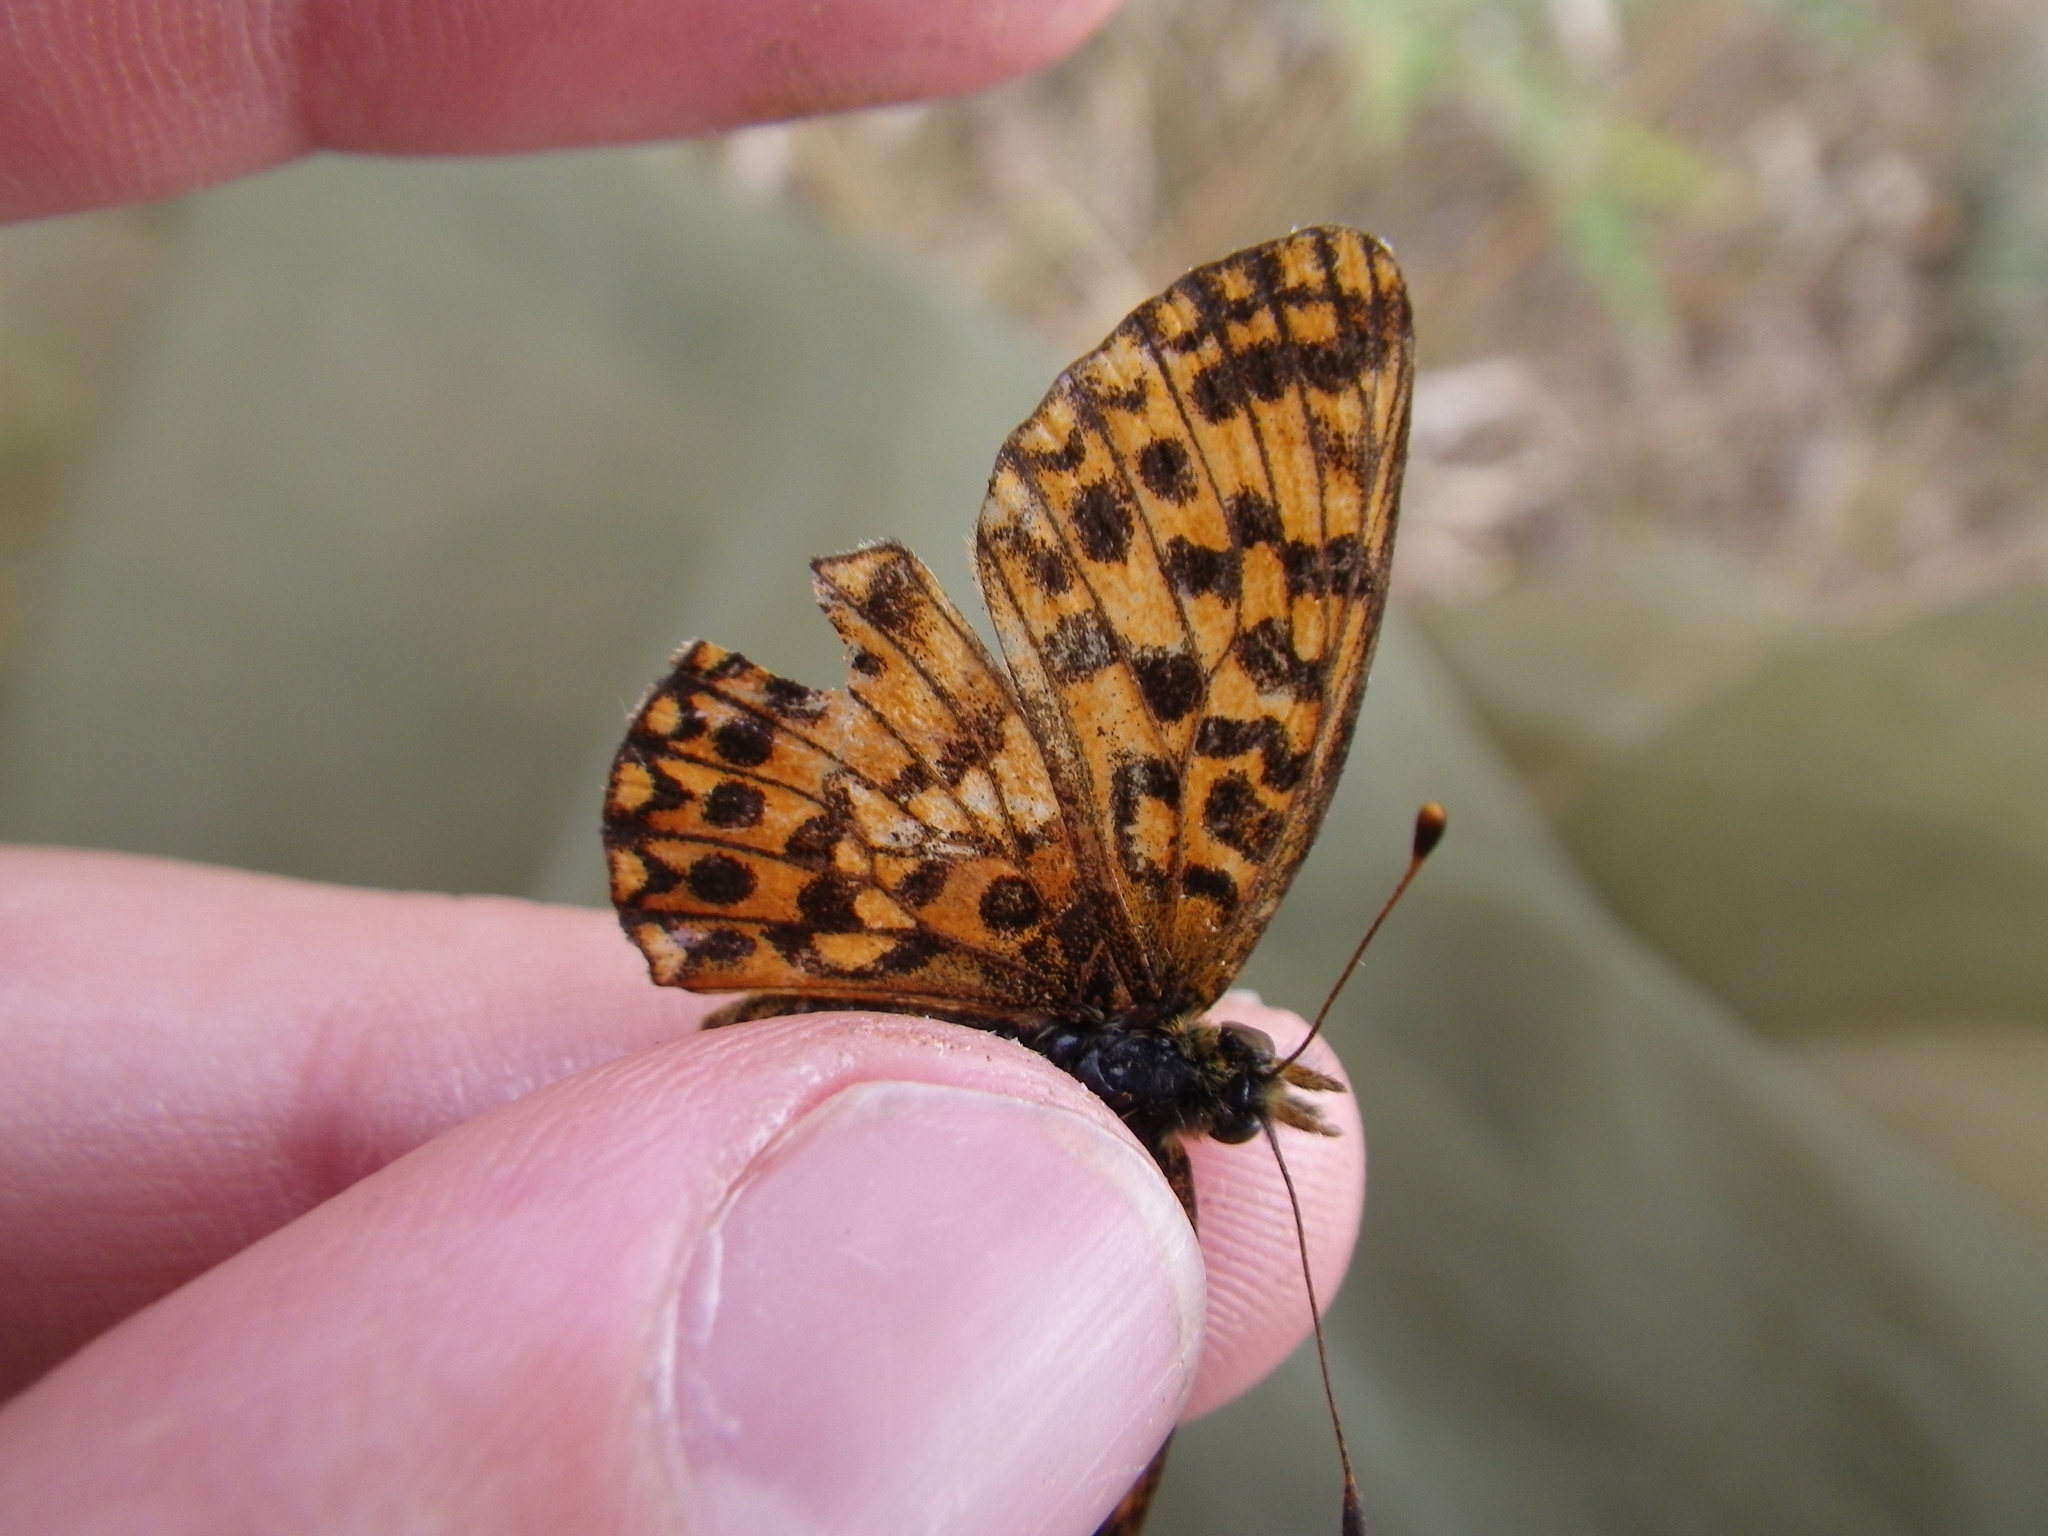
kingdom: Animalia
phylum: Arthropoda
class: Insecta
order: Lepidoptera
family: Nymphalidae
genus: Boloria
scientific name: Boloria dia
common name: Weaver's fritillary
